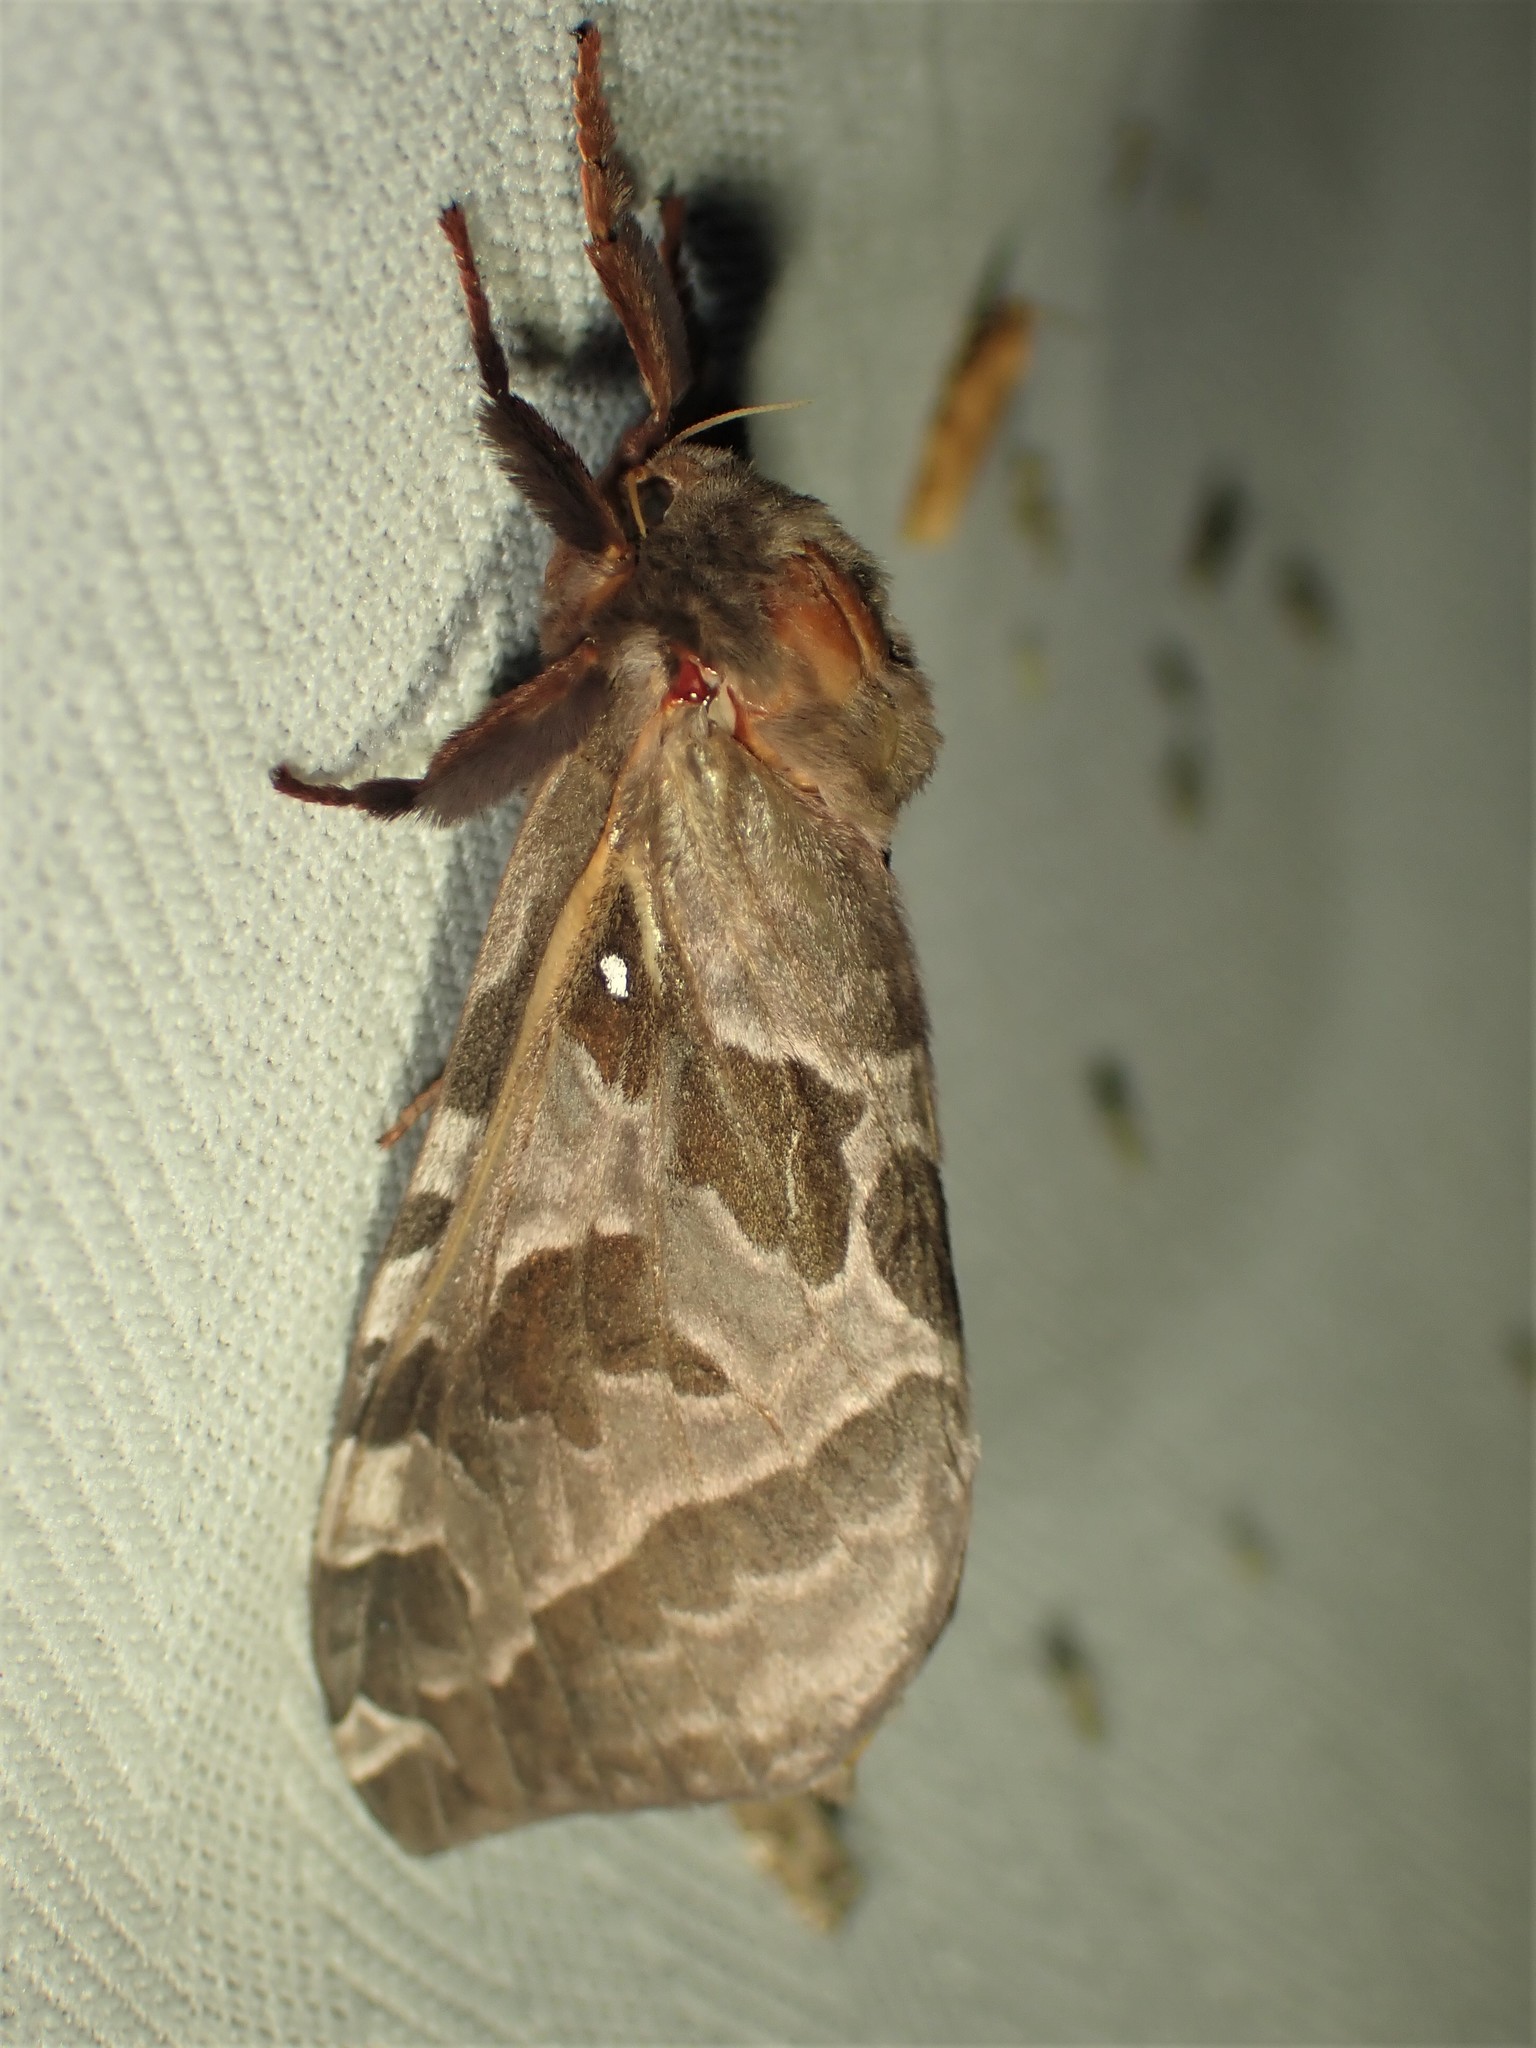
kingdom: Animalia
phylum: Arthropoda
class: Insecta
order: Lepidoptera
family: Hepialidae
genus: Sthenopis
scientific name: Sthenopis purpurascens
